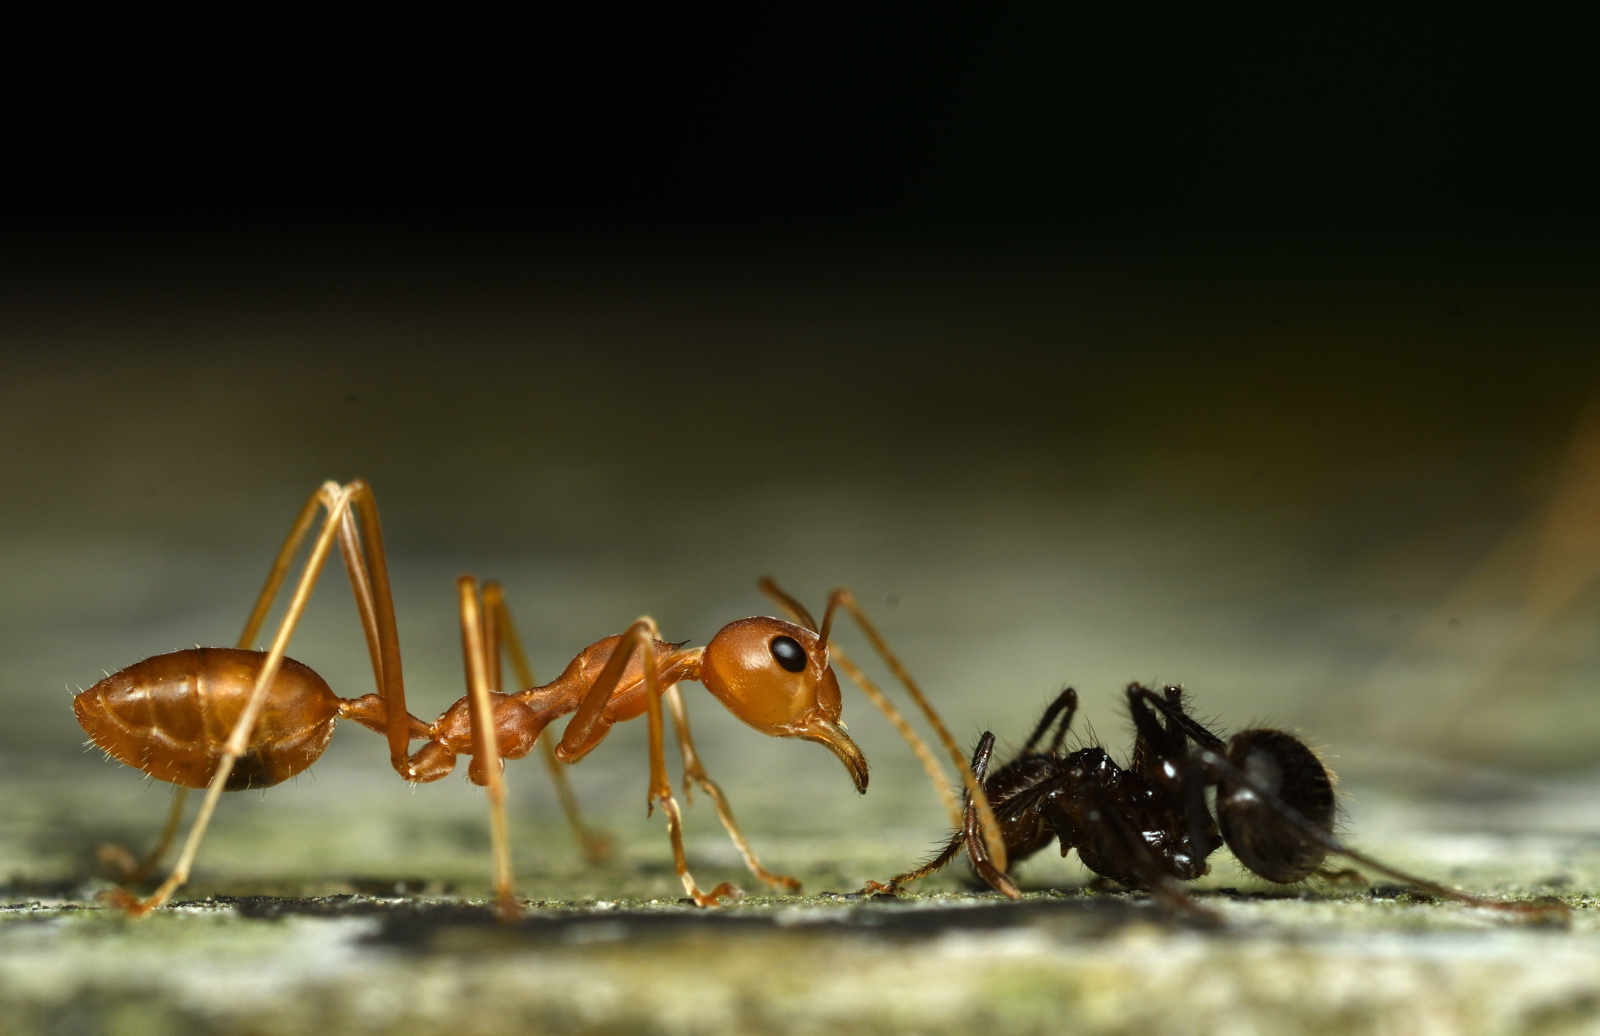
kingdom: Animalia
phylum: Arthropoda
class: Insecta
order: Hymenoptera
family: Formicidae
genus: Oecophylla
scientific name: Oecophylla smaragdina
